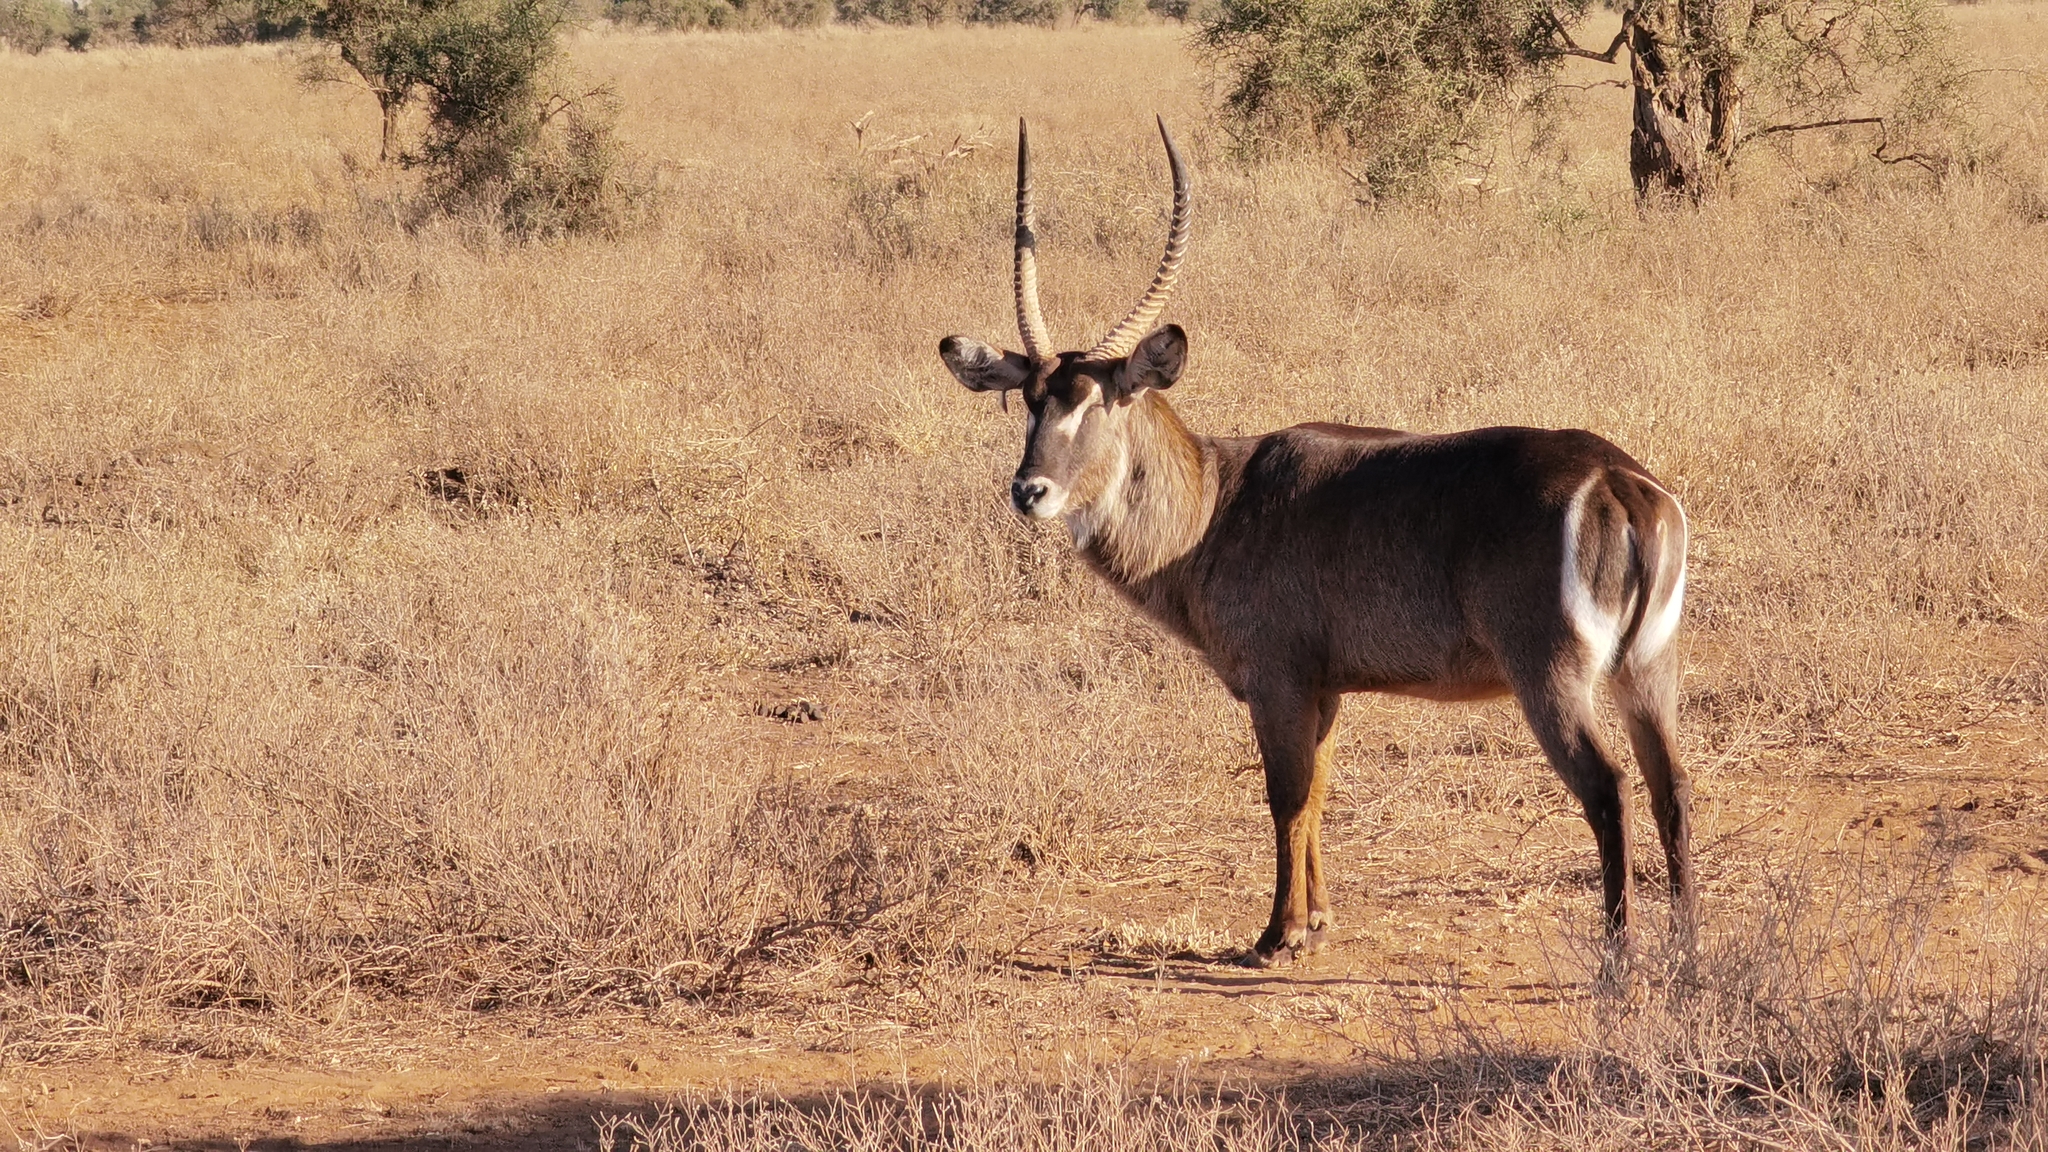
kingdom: Animalia
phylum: Chordata
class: Mammalia
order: Artiodactyla
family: Bovidae
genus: Kobus
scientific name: Kobus ellipsiprymnus
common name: Waterbuck
